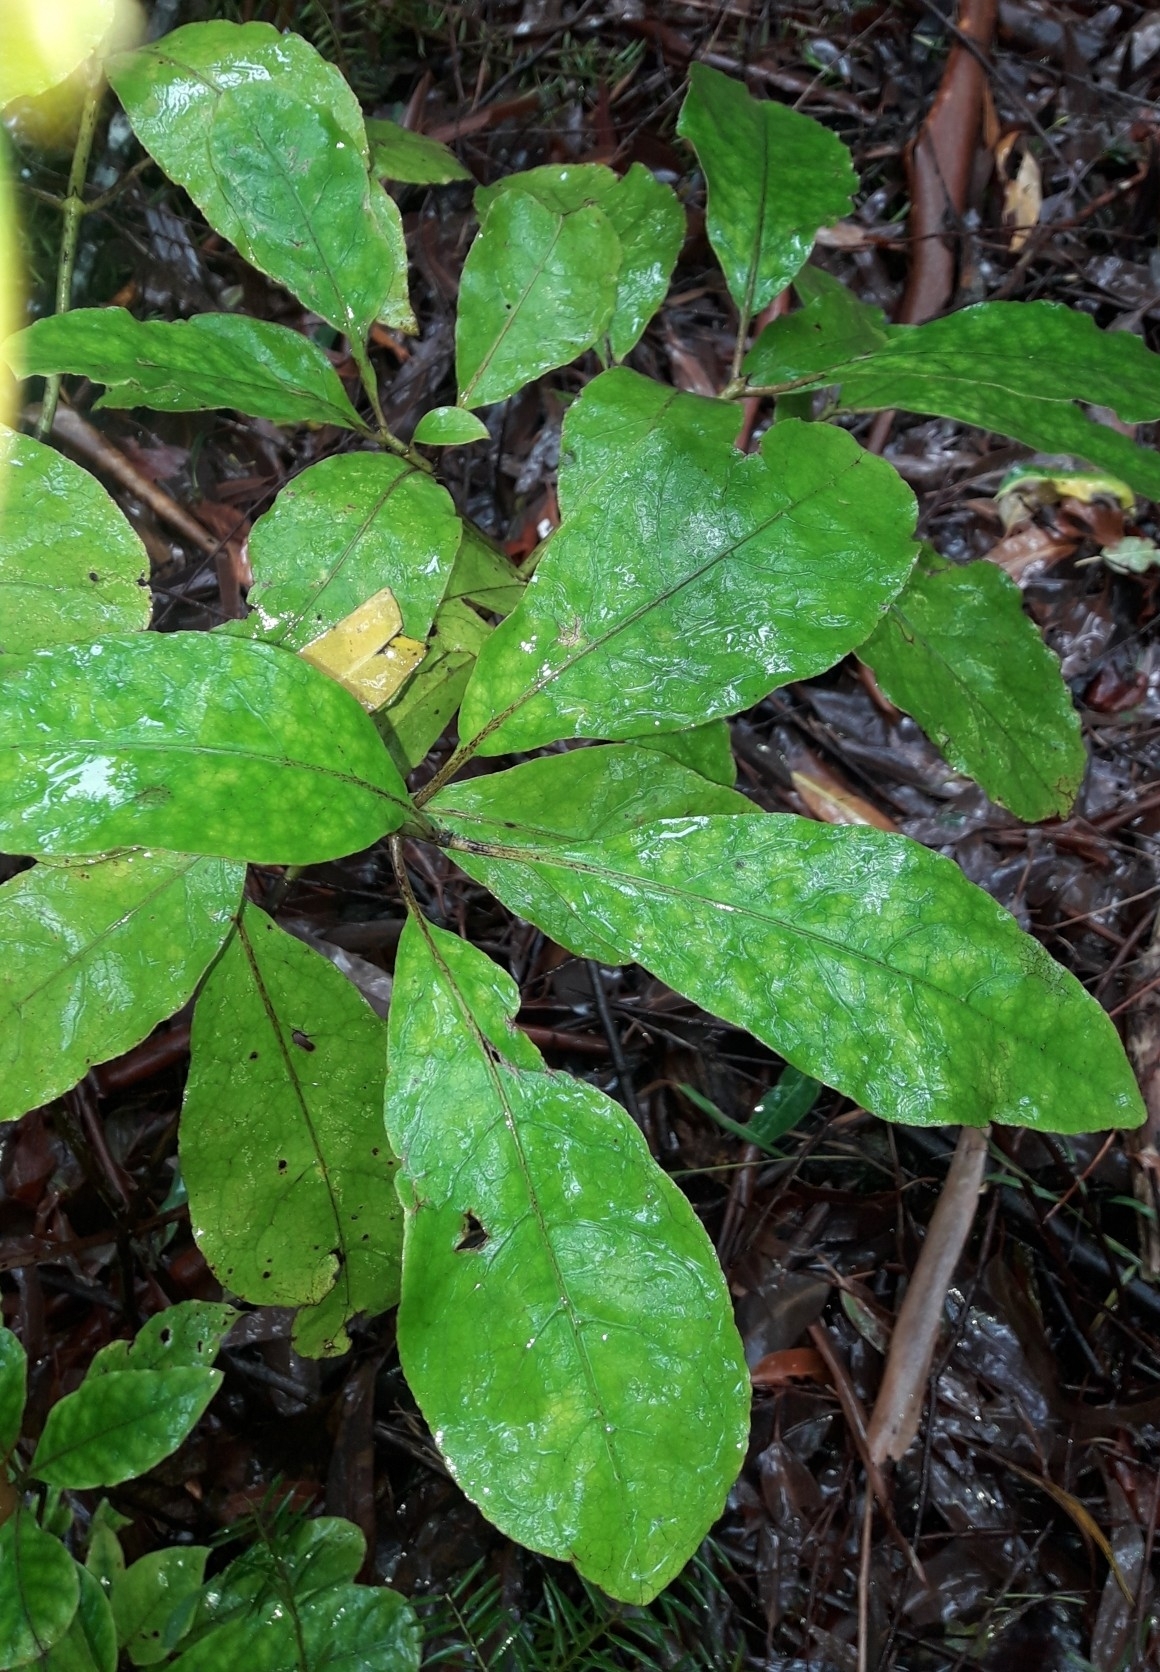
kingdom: Plantae
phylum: Tracheophyta
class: Magnoliopsida
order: Gentianales
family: Rubiaceae
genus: Coprosma
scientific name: Coprosma autumnalis
